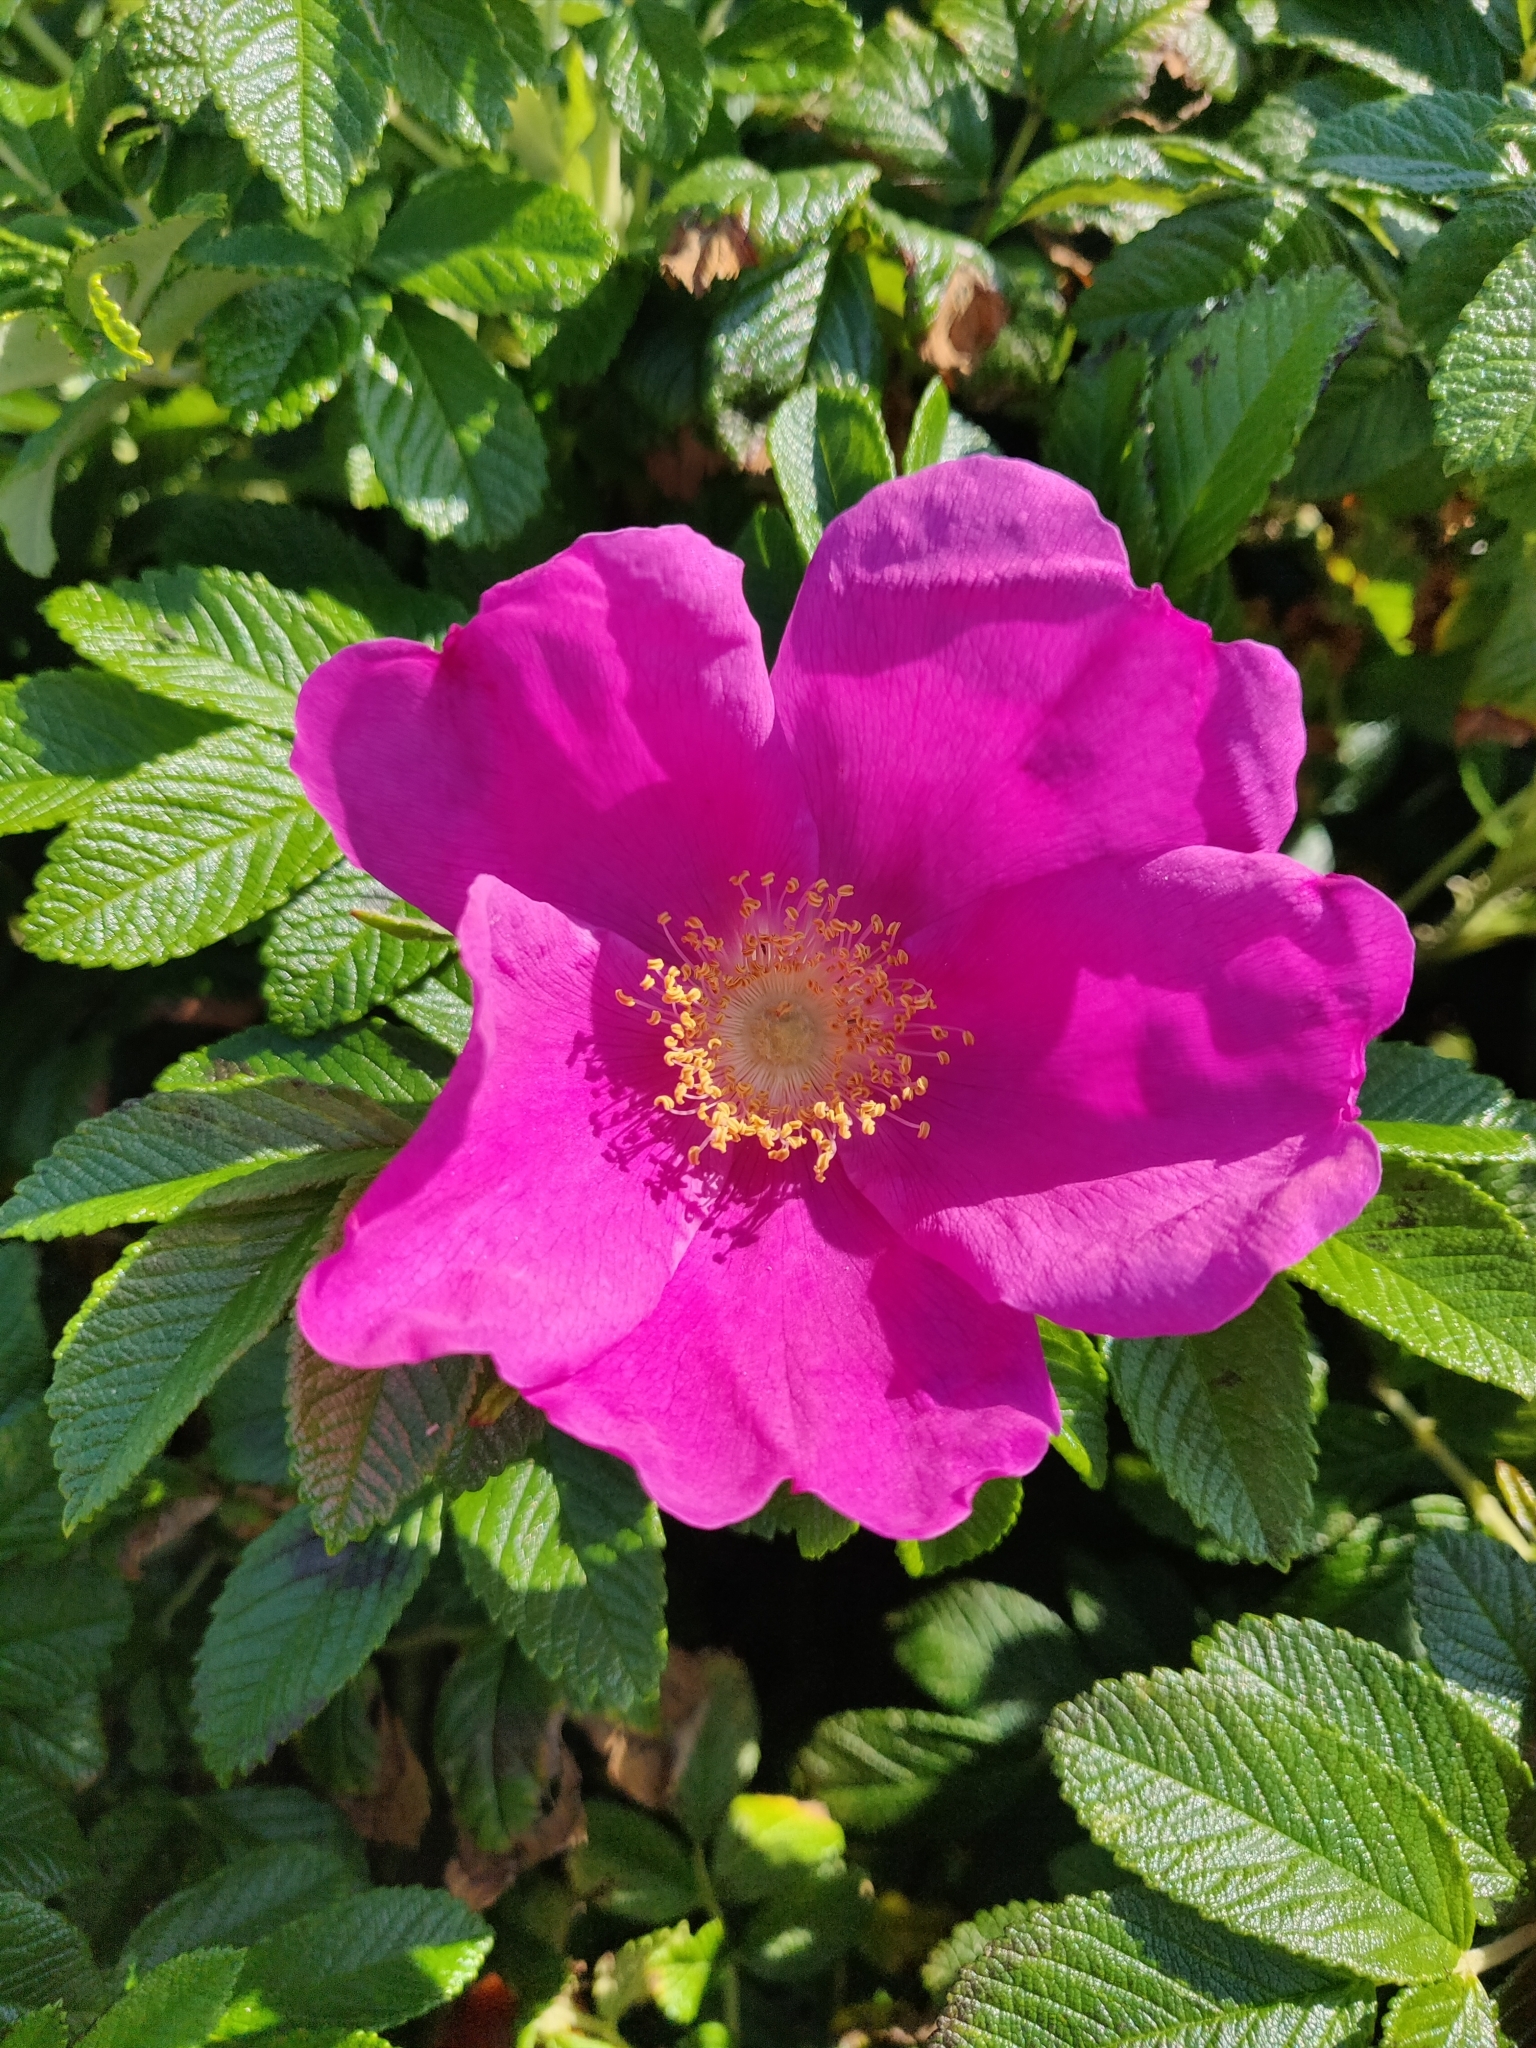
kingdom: Plantae
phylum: Tracheophyta
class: Magnoliopsida
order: Rosales
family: Rosaceae
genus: Rosa
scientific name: Rosa rugosa
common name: Japanese rose
